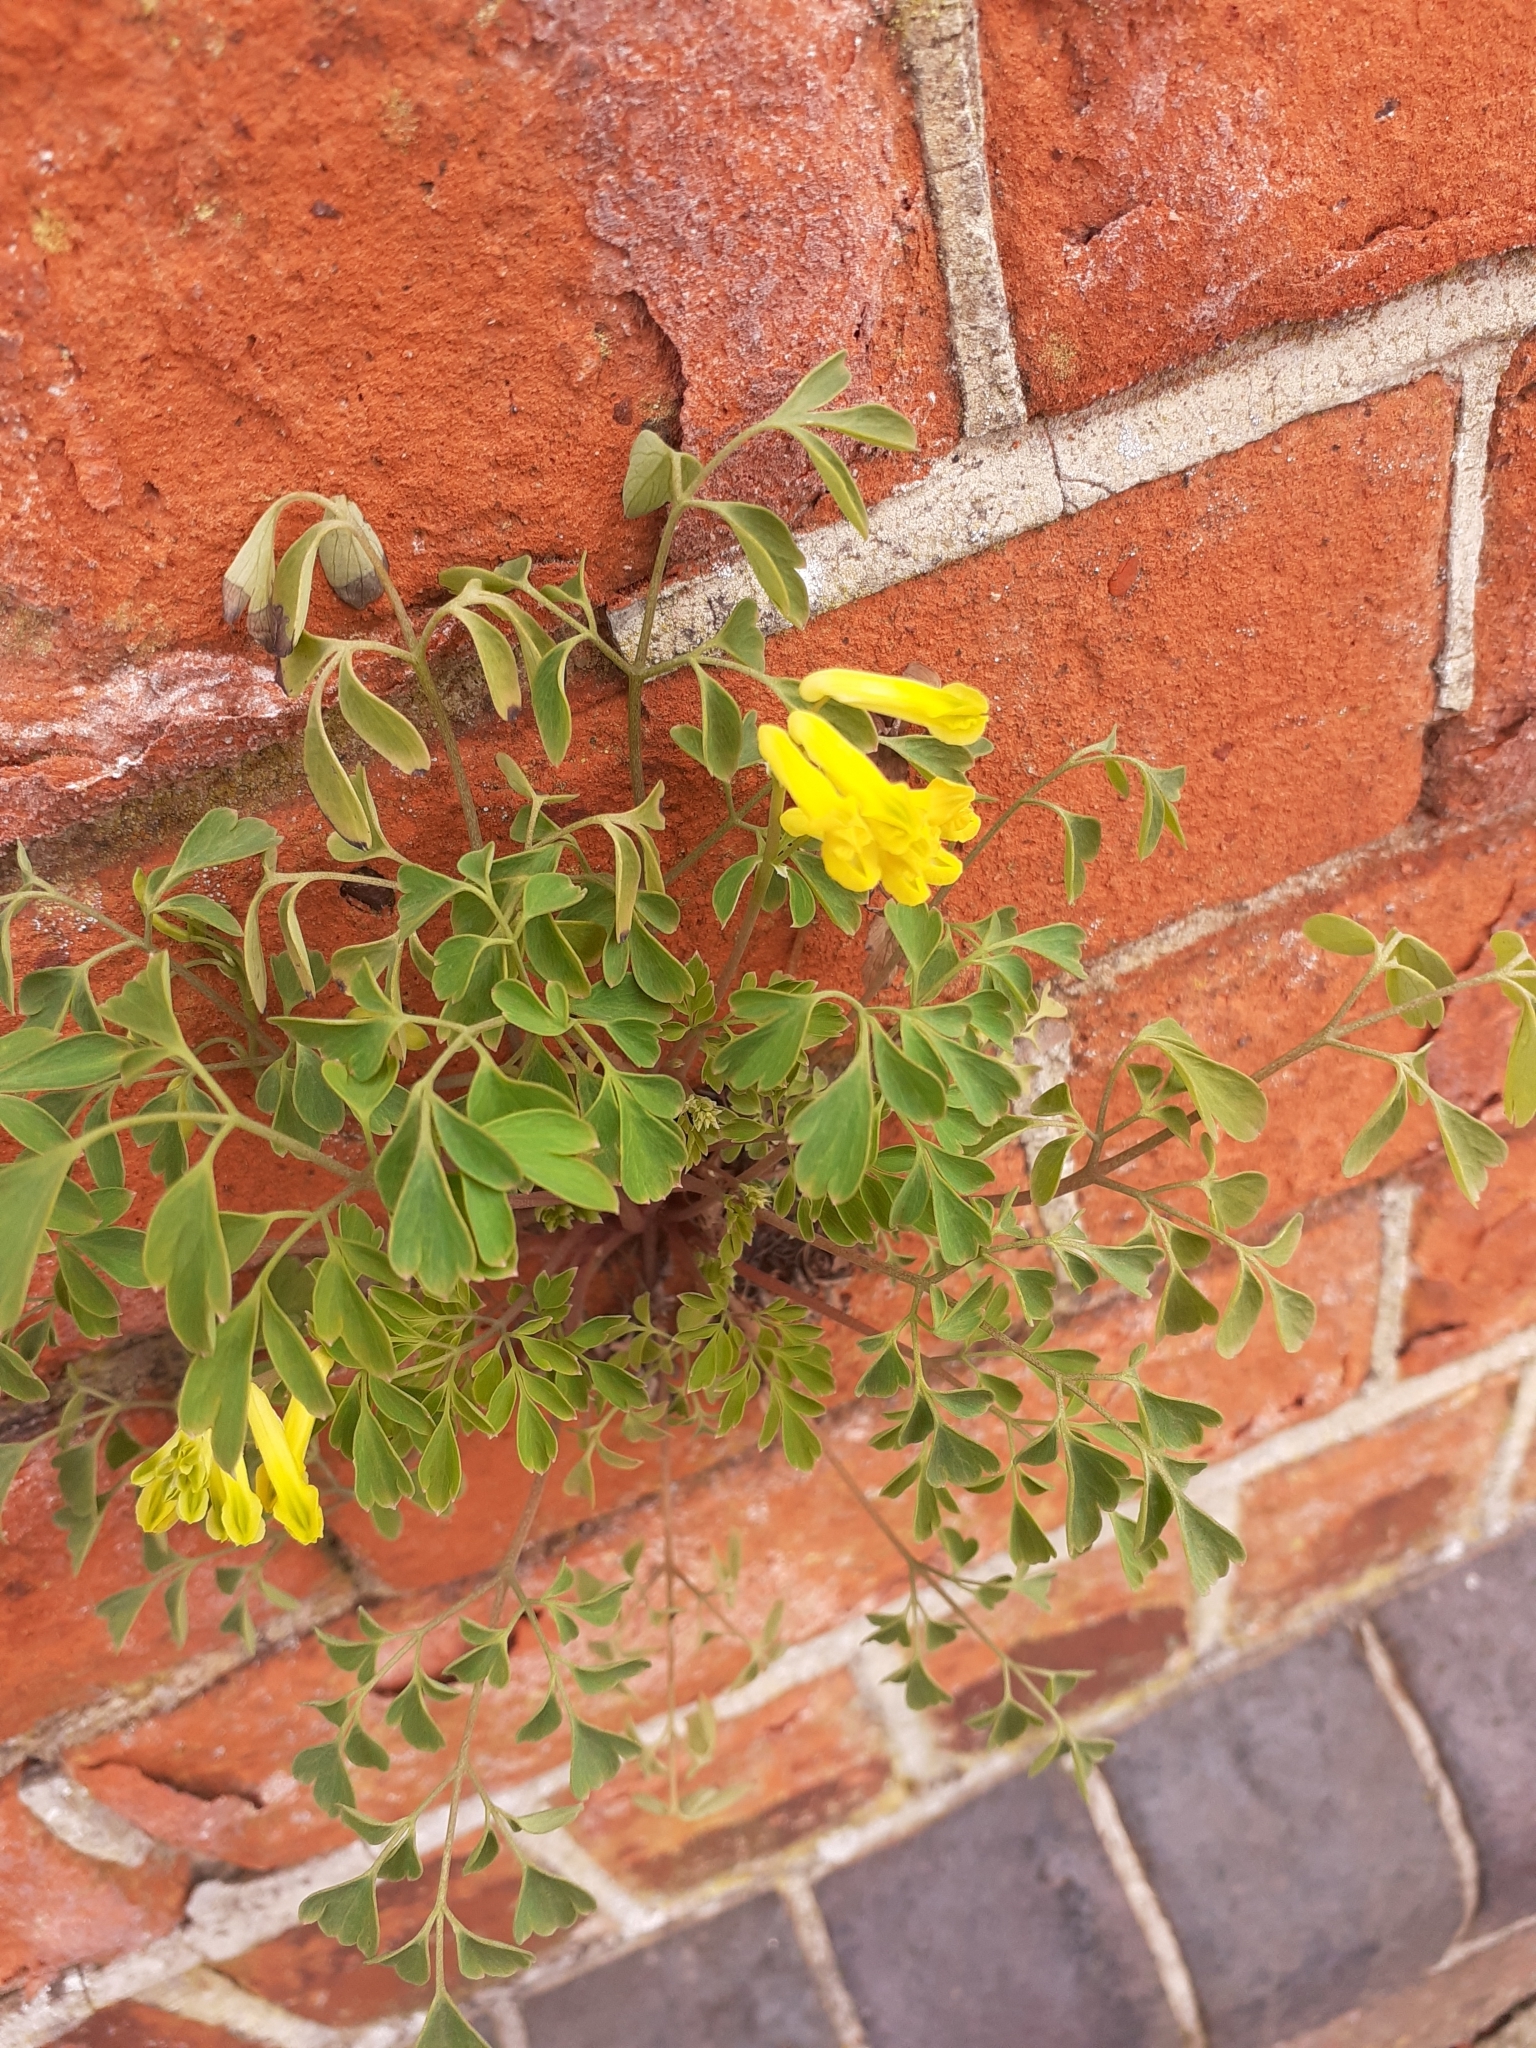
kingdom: Plantae
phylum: Tracheophyta
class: Magnoliopsida
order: Ranunculales
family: Papaveraceae
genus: Pseudofumaria
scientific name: Pseudofumaria lutea
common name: Yellow corydalis
